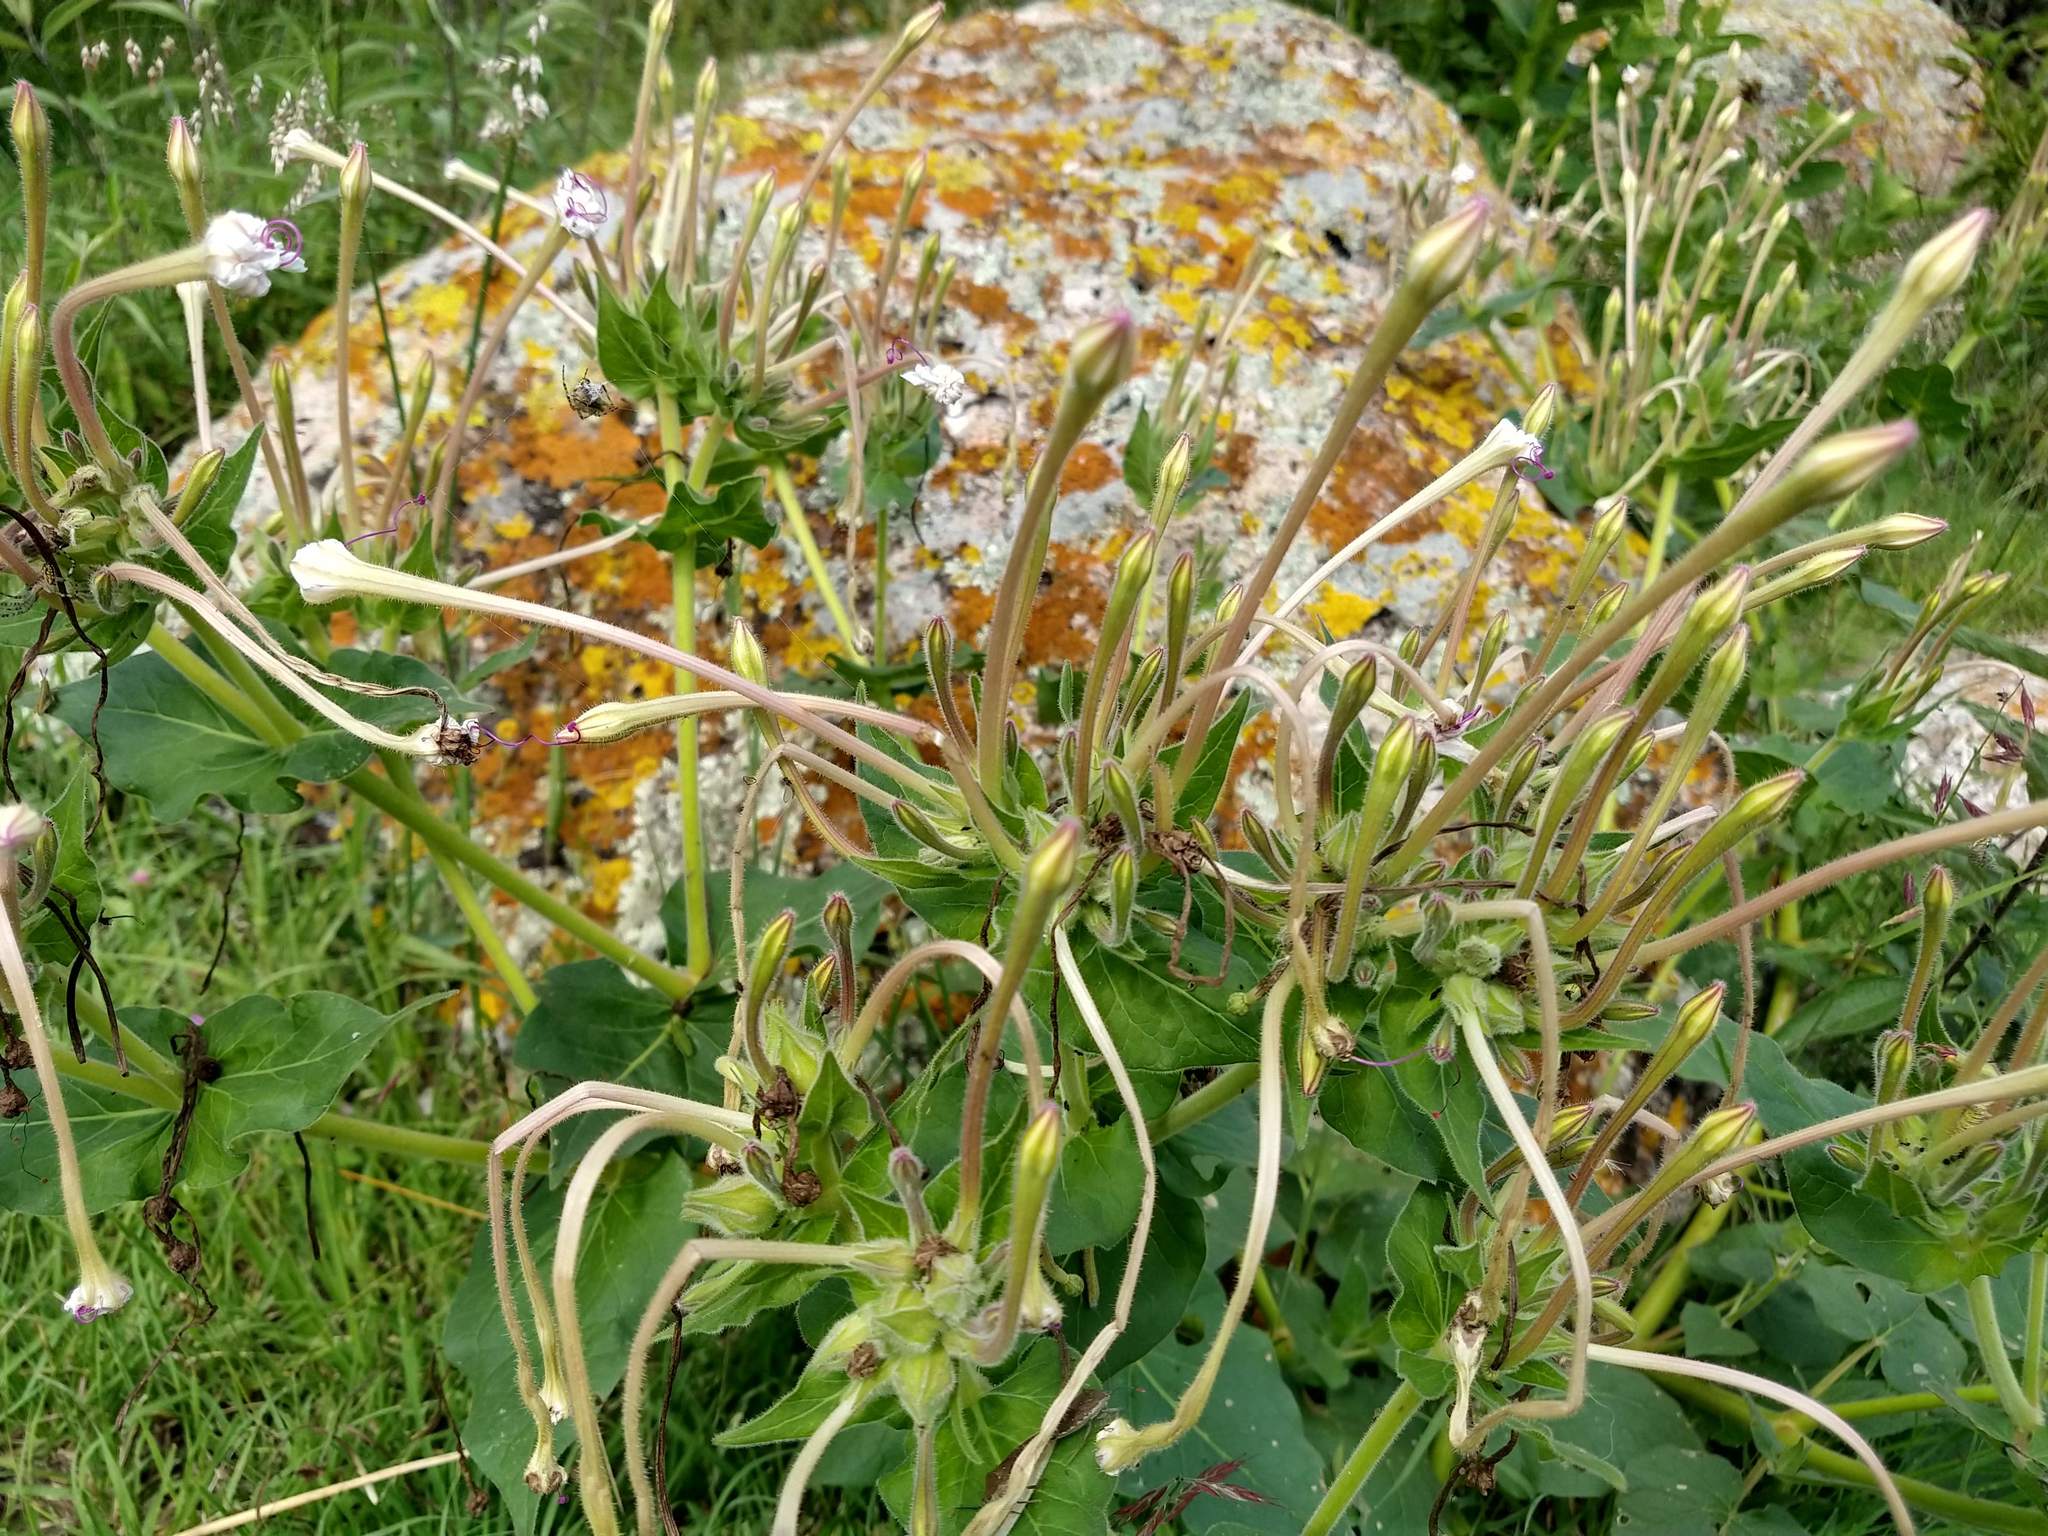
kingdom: Plantae
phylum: Tracheophyta
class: Magnoliopsida
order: Caryophyllales
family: Nyctaginaceae
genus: Mirabilis
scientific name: Mirabilis longiflora
